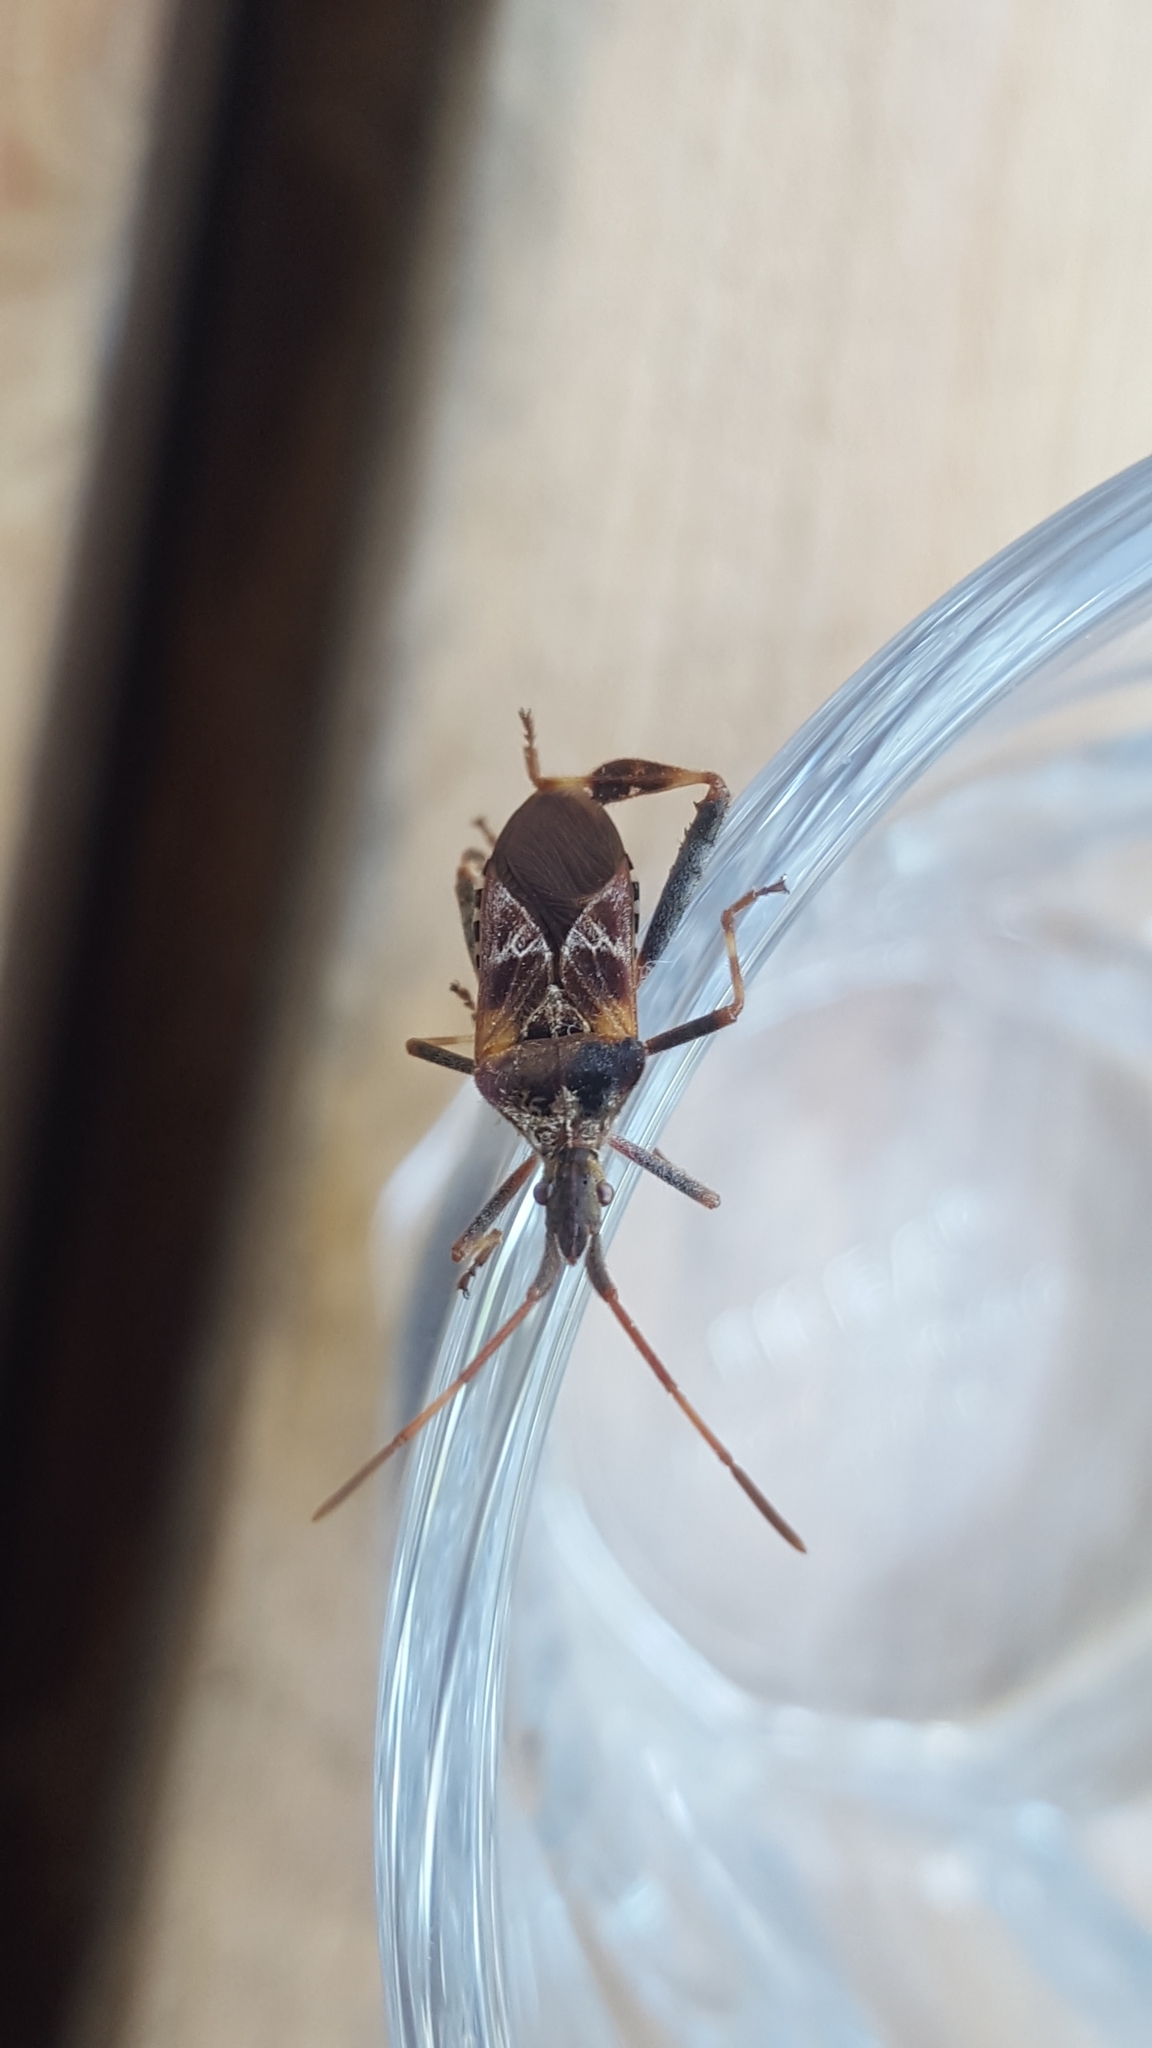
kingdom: Animalia
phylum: Arthropoda
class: Insecta
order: Hemiptera
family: Coreidae
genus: Leptoglossus
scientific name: Leptoglossus occidentalis
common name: Western conifer-seed bug
